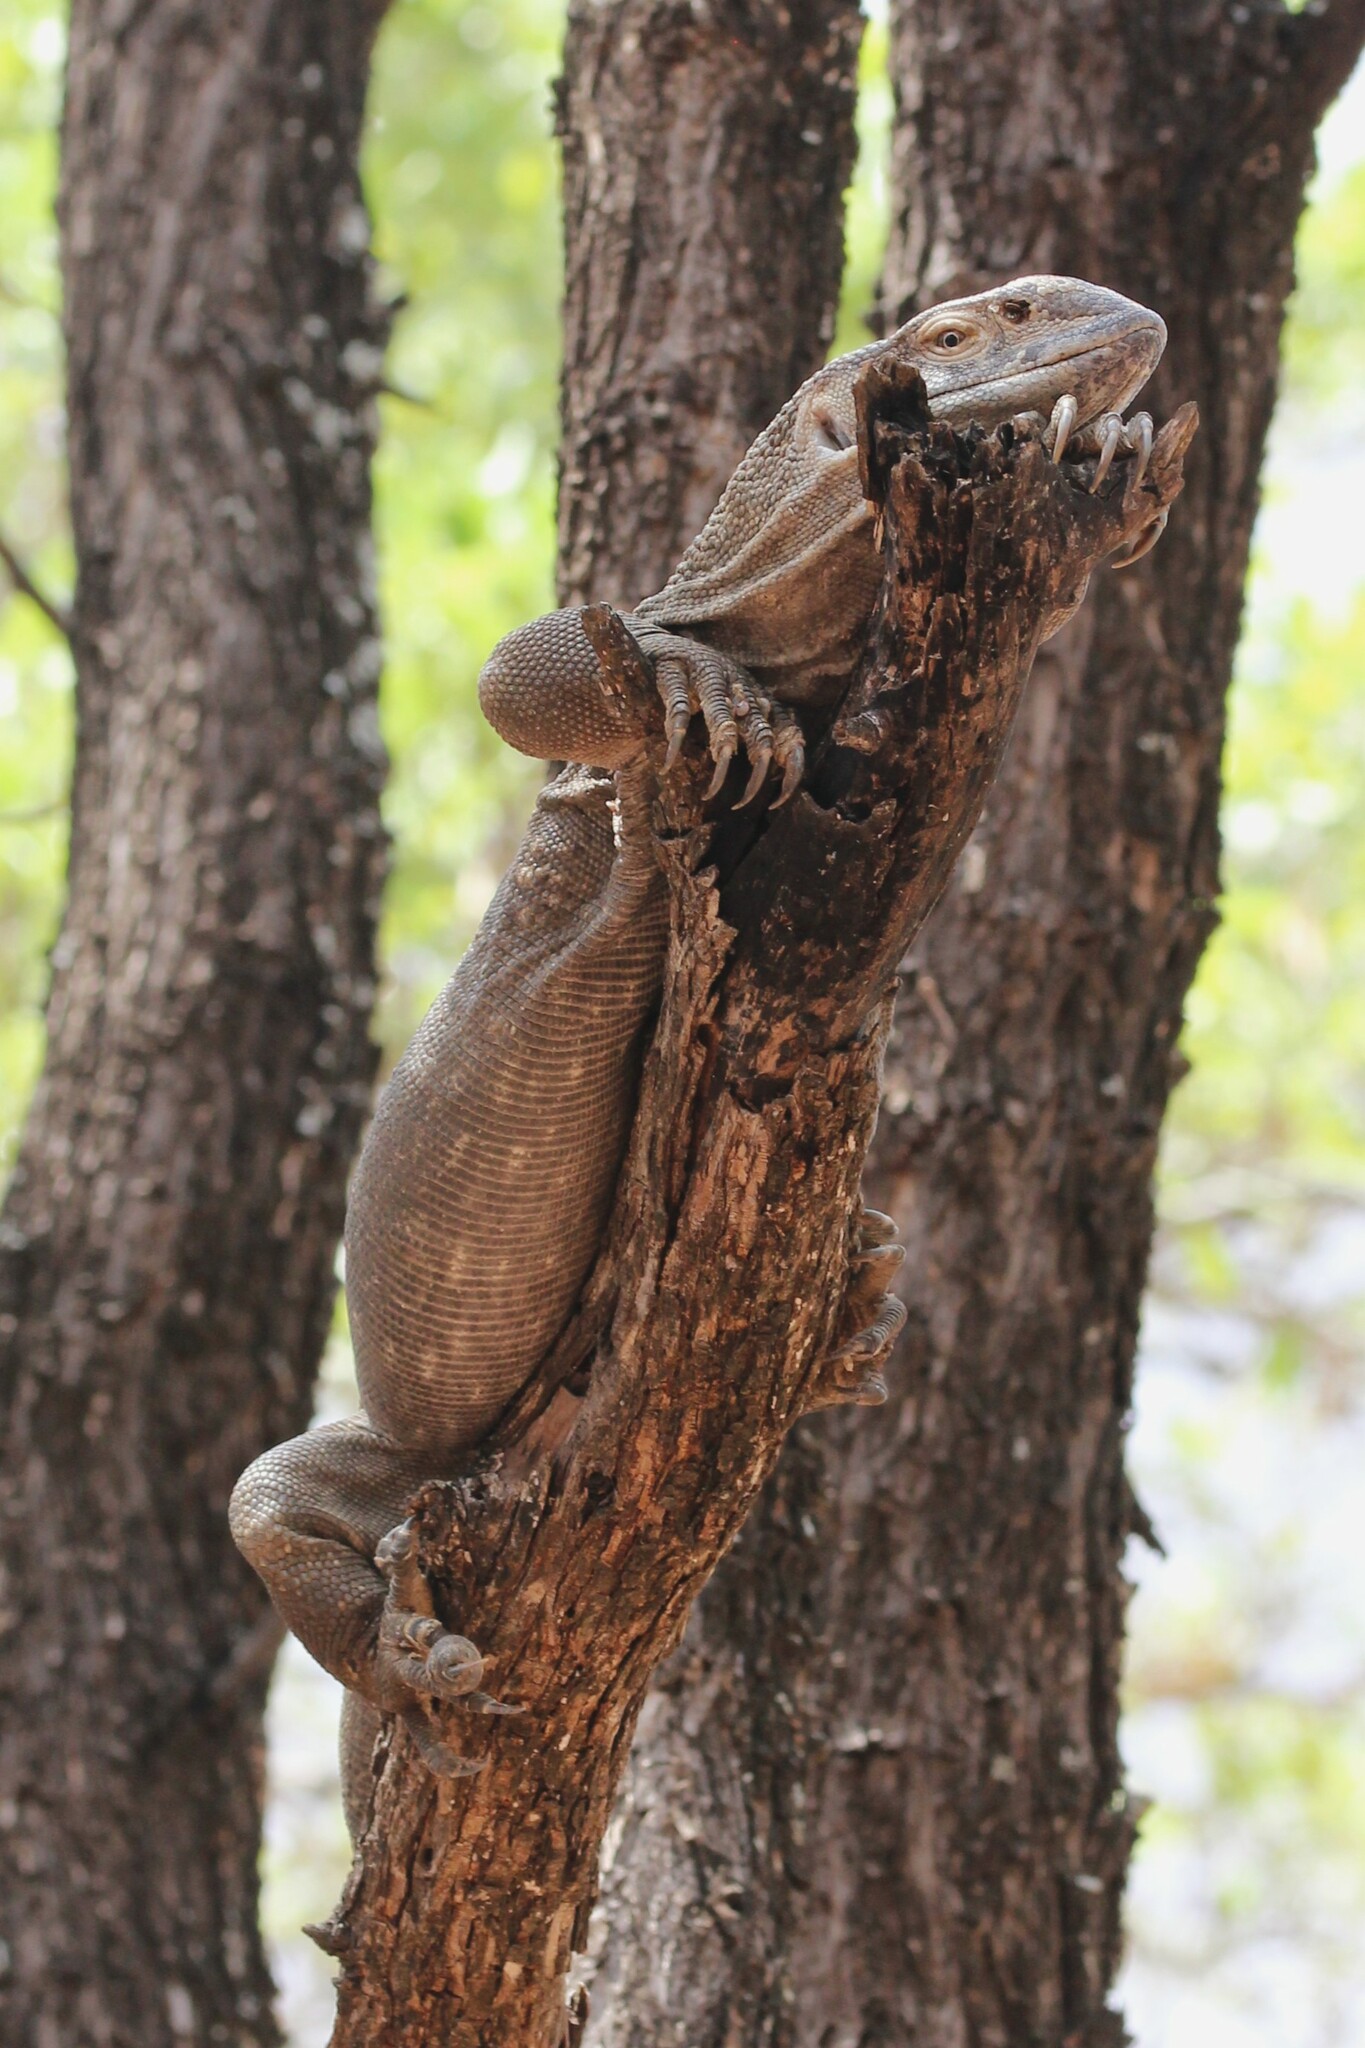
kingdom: Animalia
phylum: Chordata
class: Squamata
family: Varanidae
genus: Varanus
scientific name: Varanus albigularis
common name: White-throated monitor
